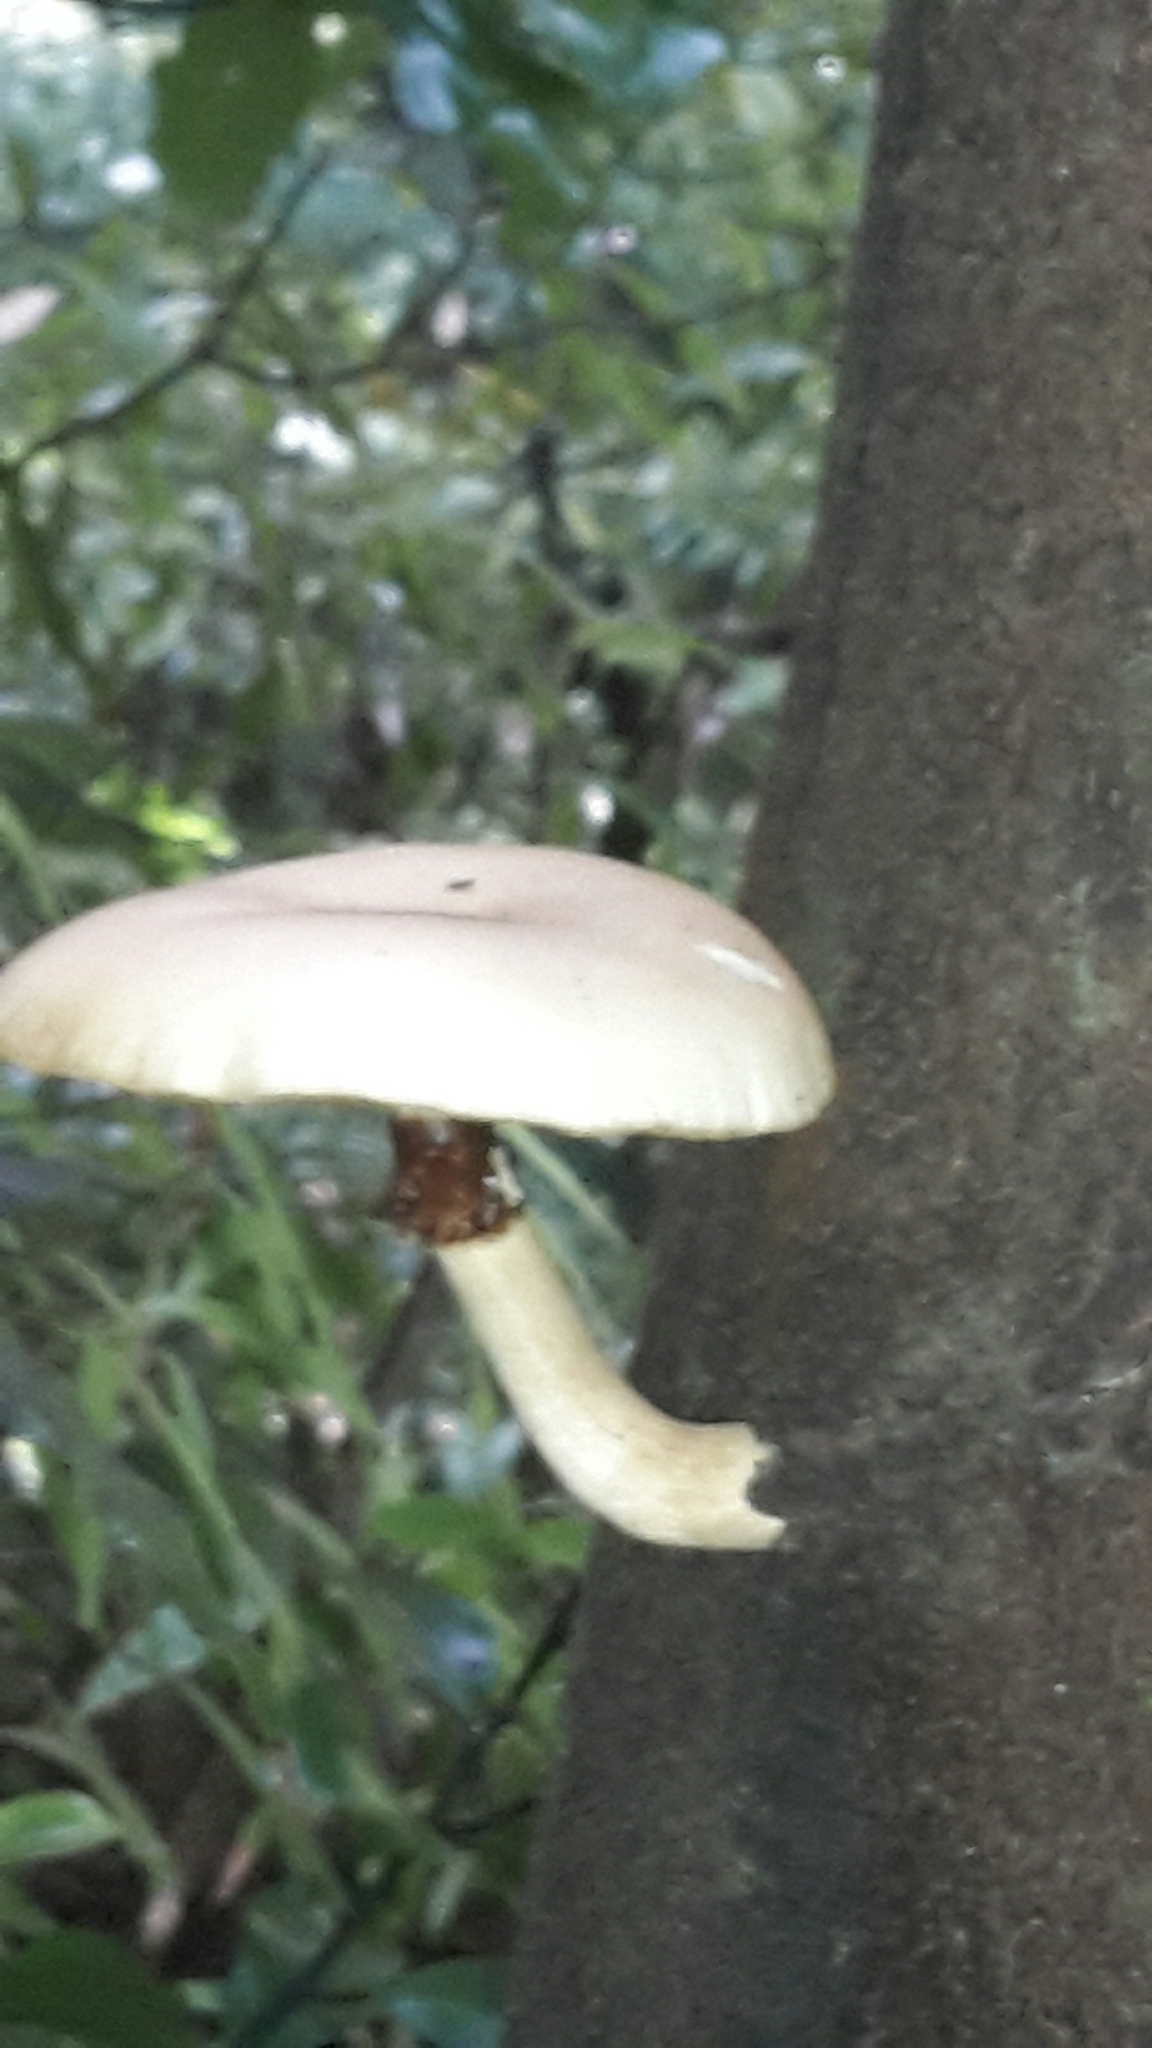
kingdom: Fungi
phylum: Basidiomycota
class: Agaricomycetes
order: Agaricales
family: Tubariaceae
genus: Cyclocybe
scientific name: Cyclocybe parasitica
